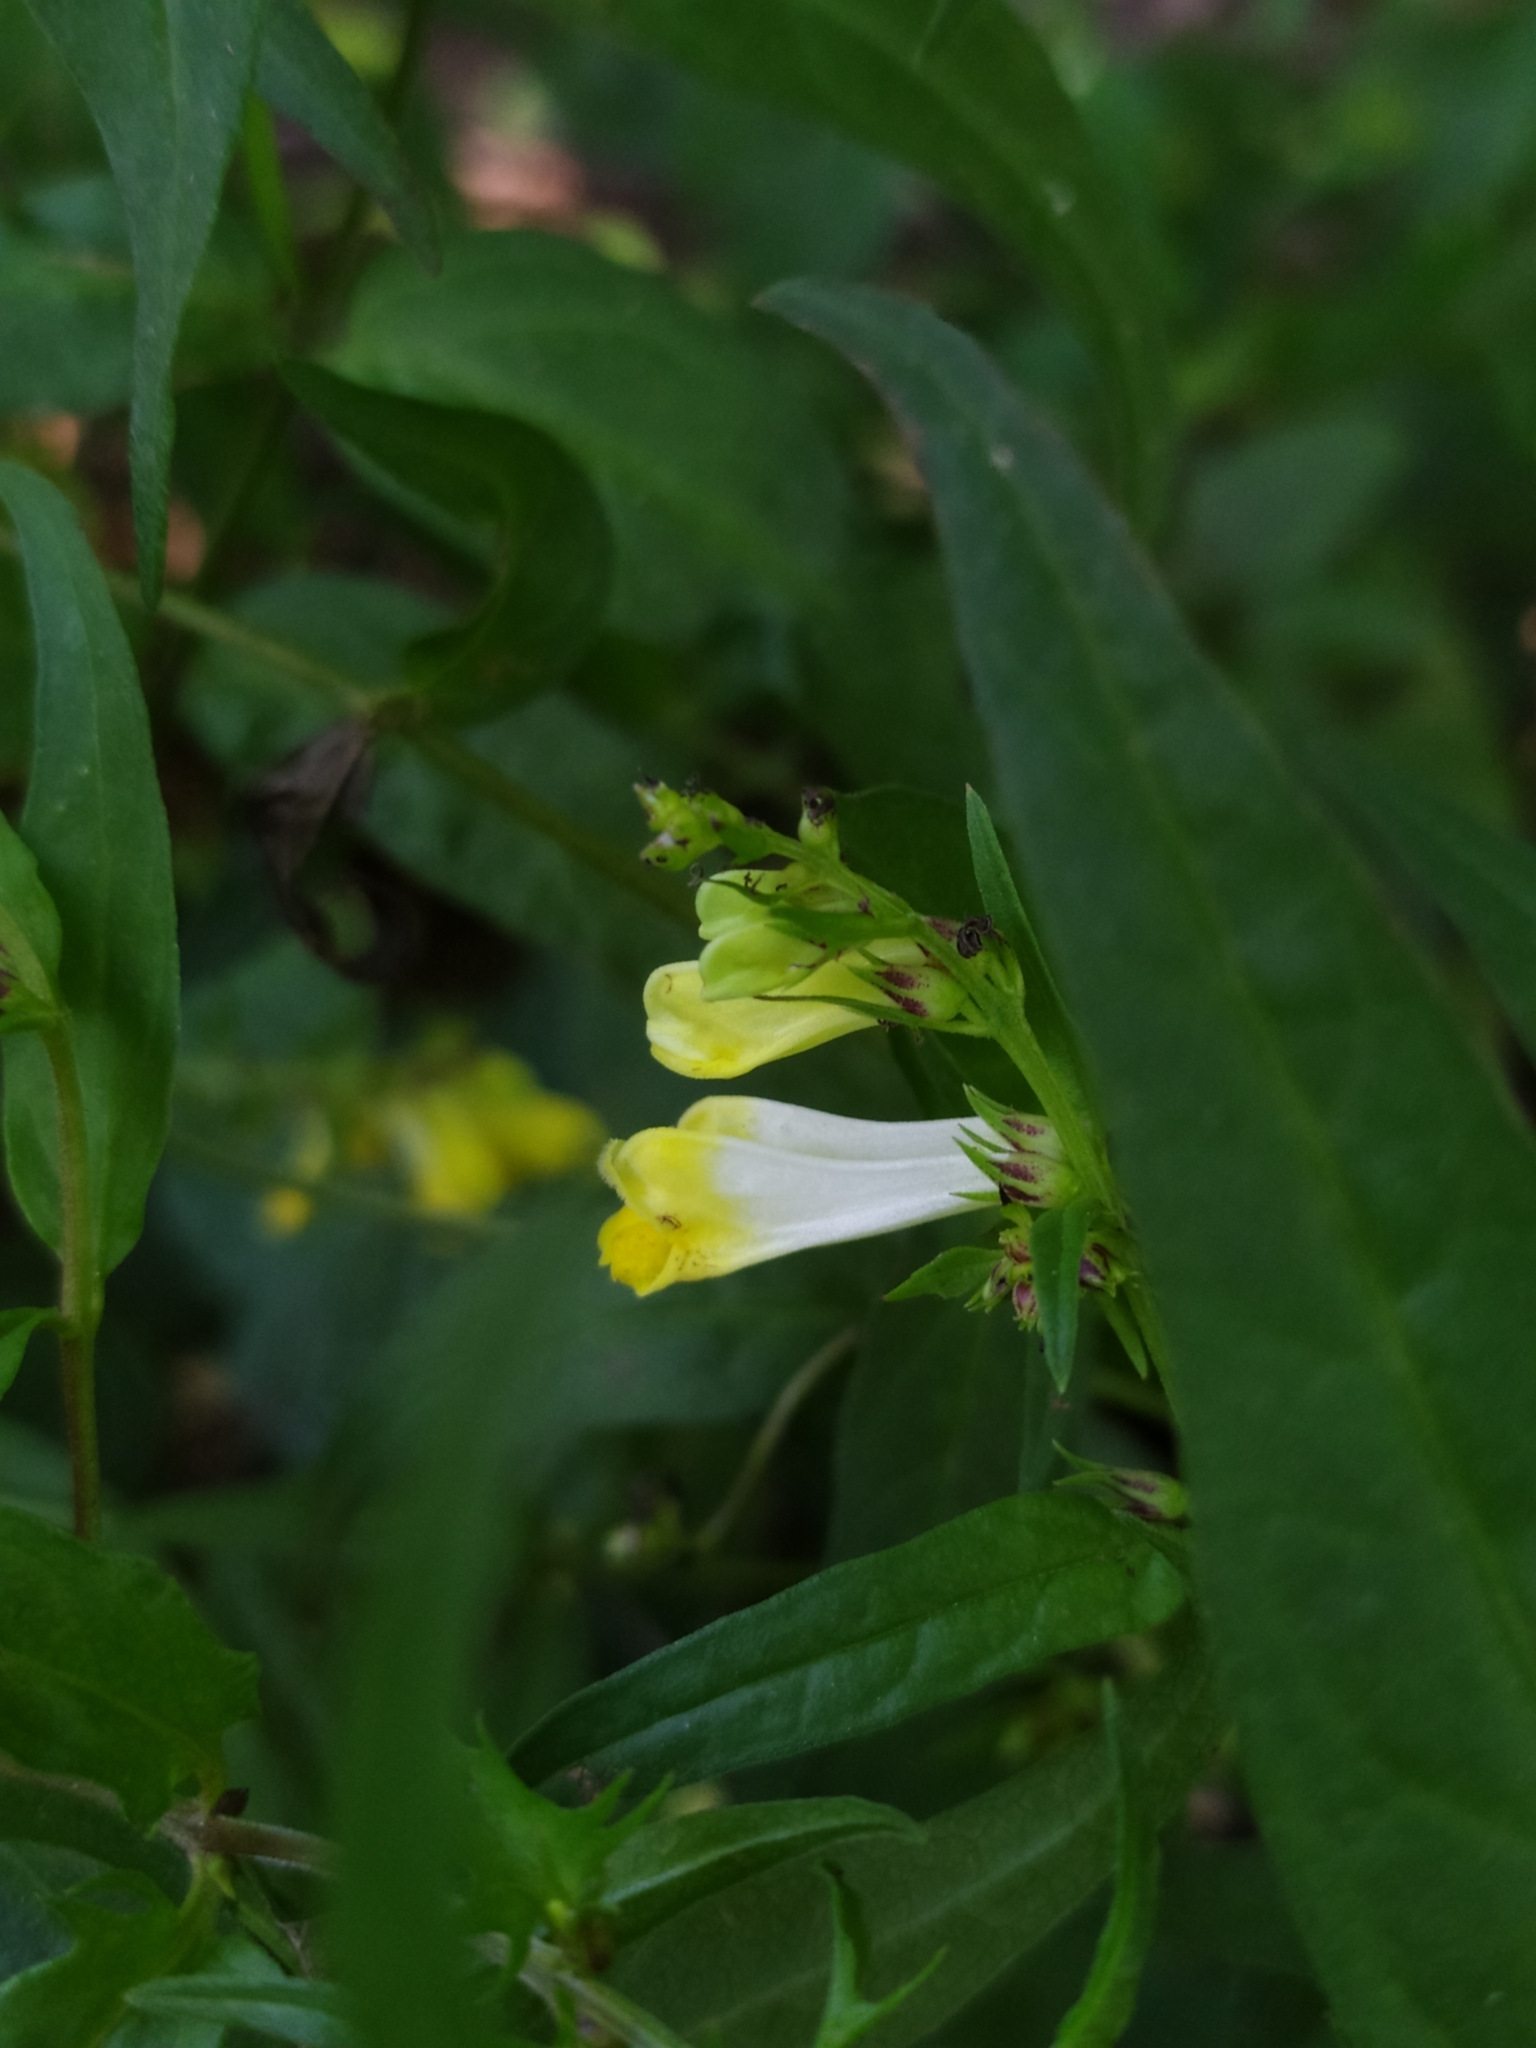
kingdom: Plantae
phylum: Tracheophyta
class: Magnoliopsida
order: Lamiales
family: Orobanchaceae
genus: Melampyrum
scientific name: Melampyrum pratense
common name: Common cow-wheat
